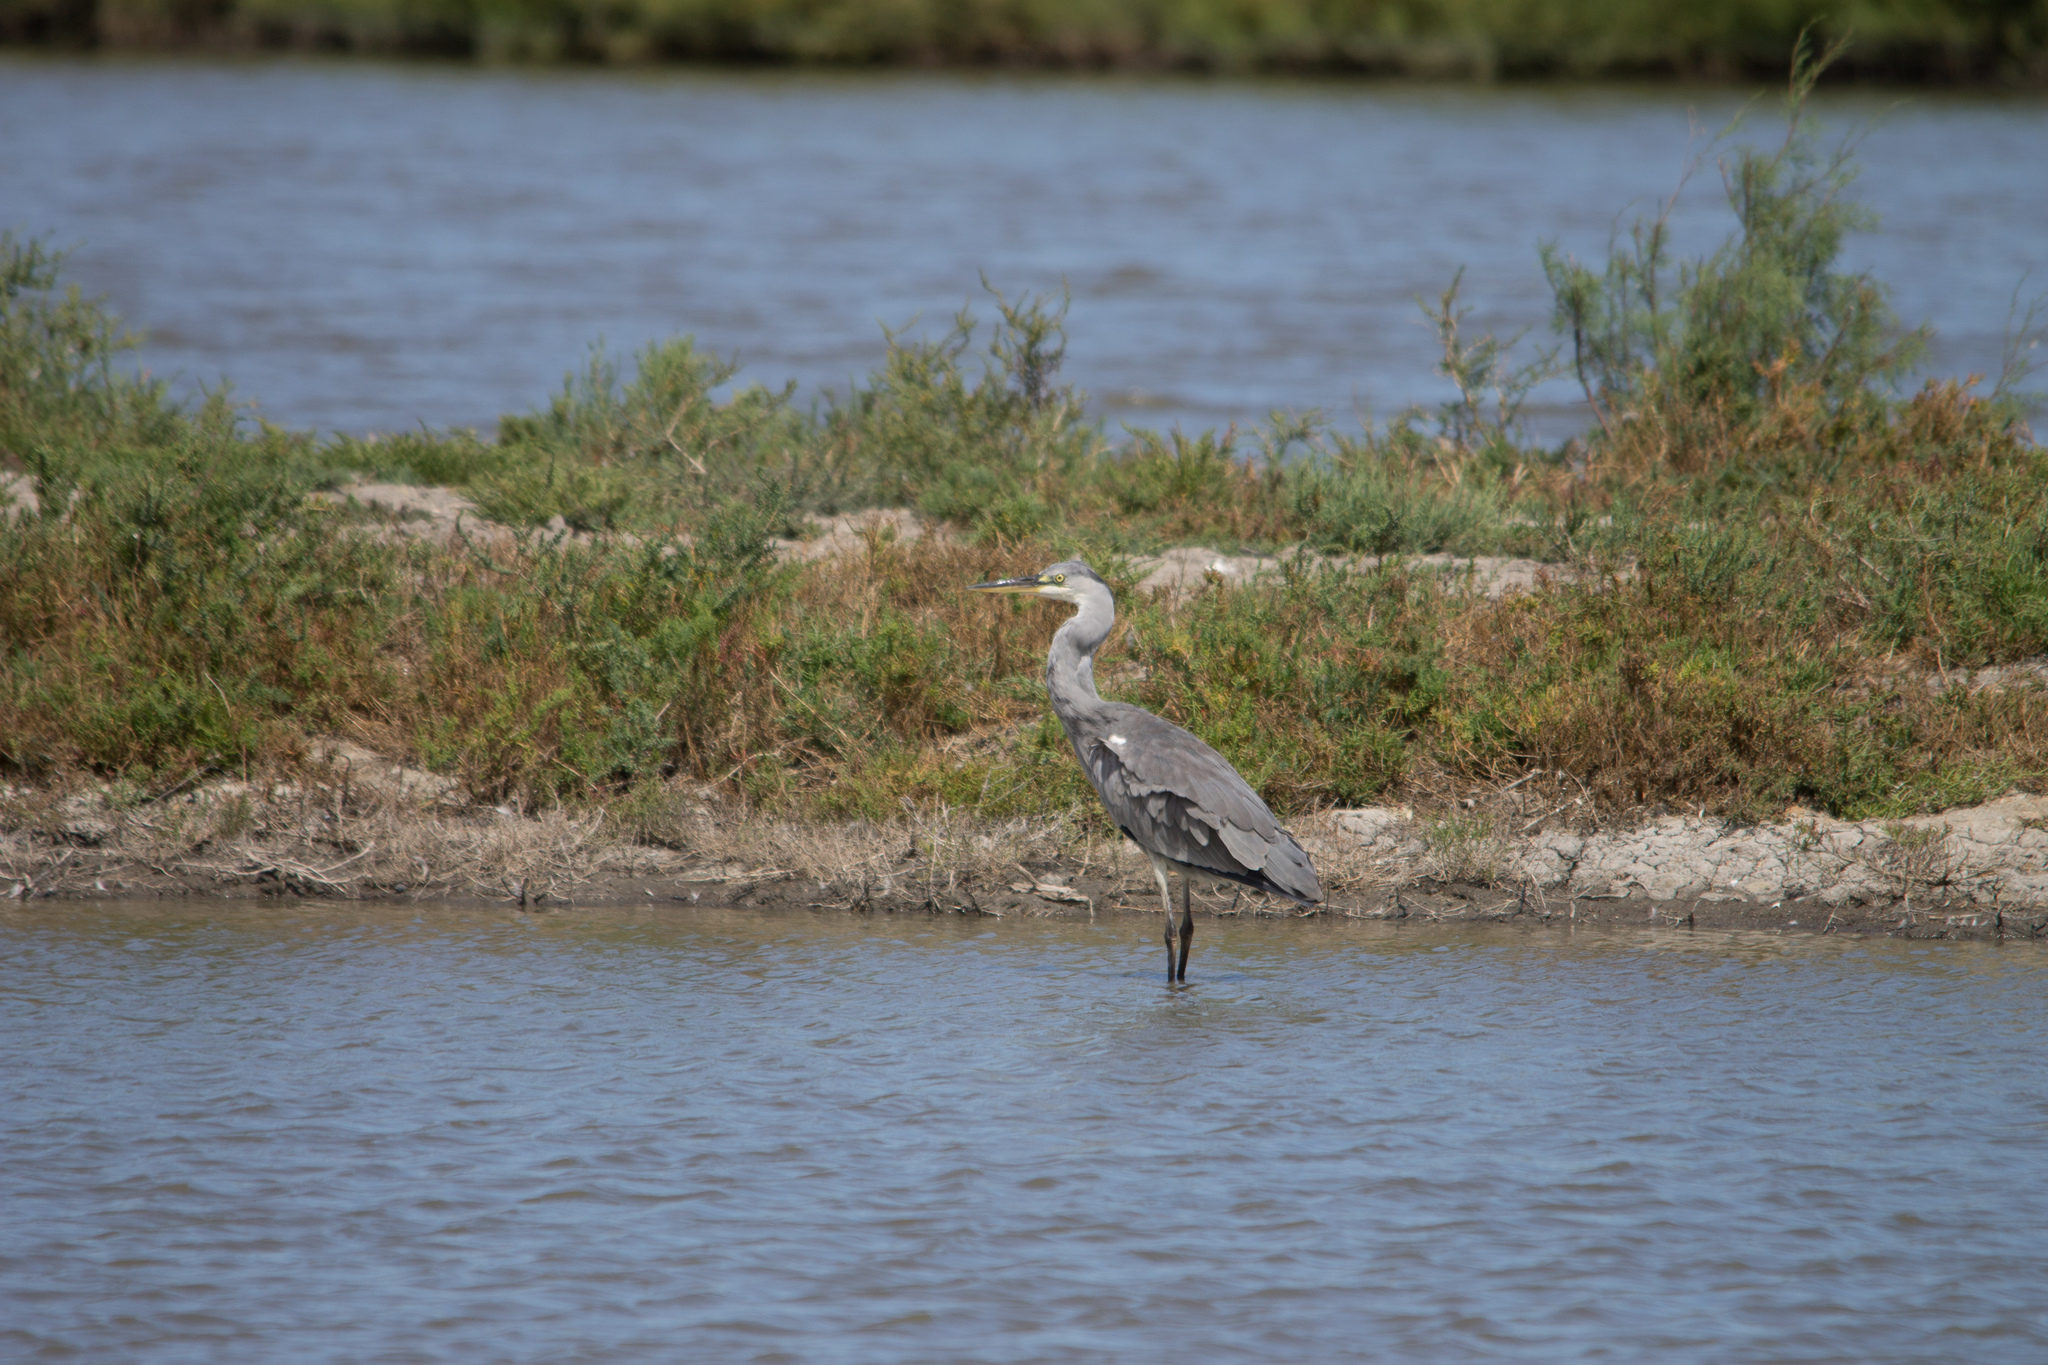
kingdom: Animalia
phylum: Chordata
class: Aves
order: Pelecaniformes
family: Ardeidae
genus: Ardea
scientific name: Ardea cinerea
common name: Grey heron
